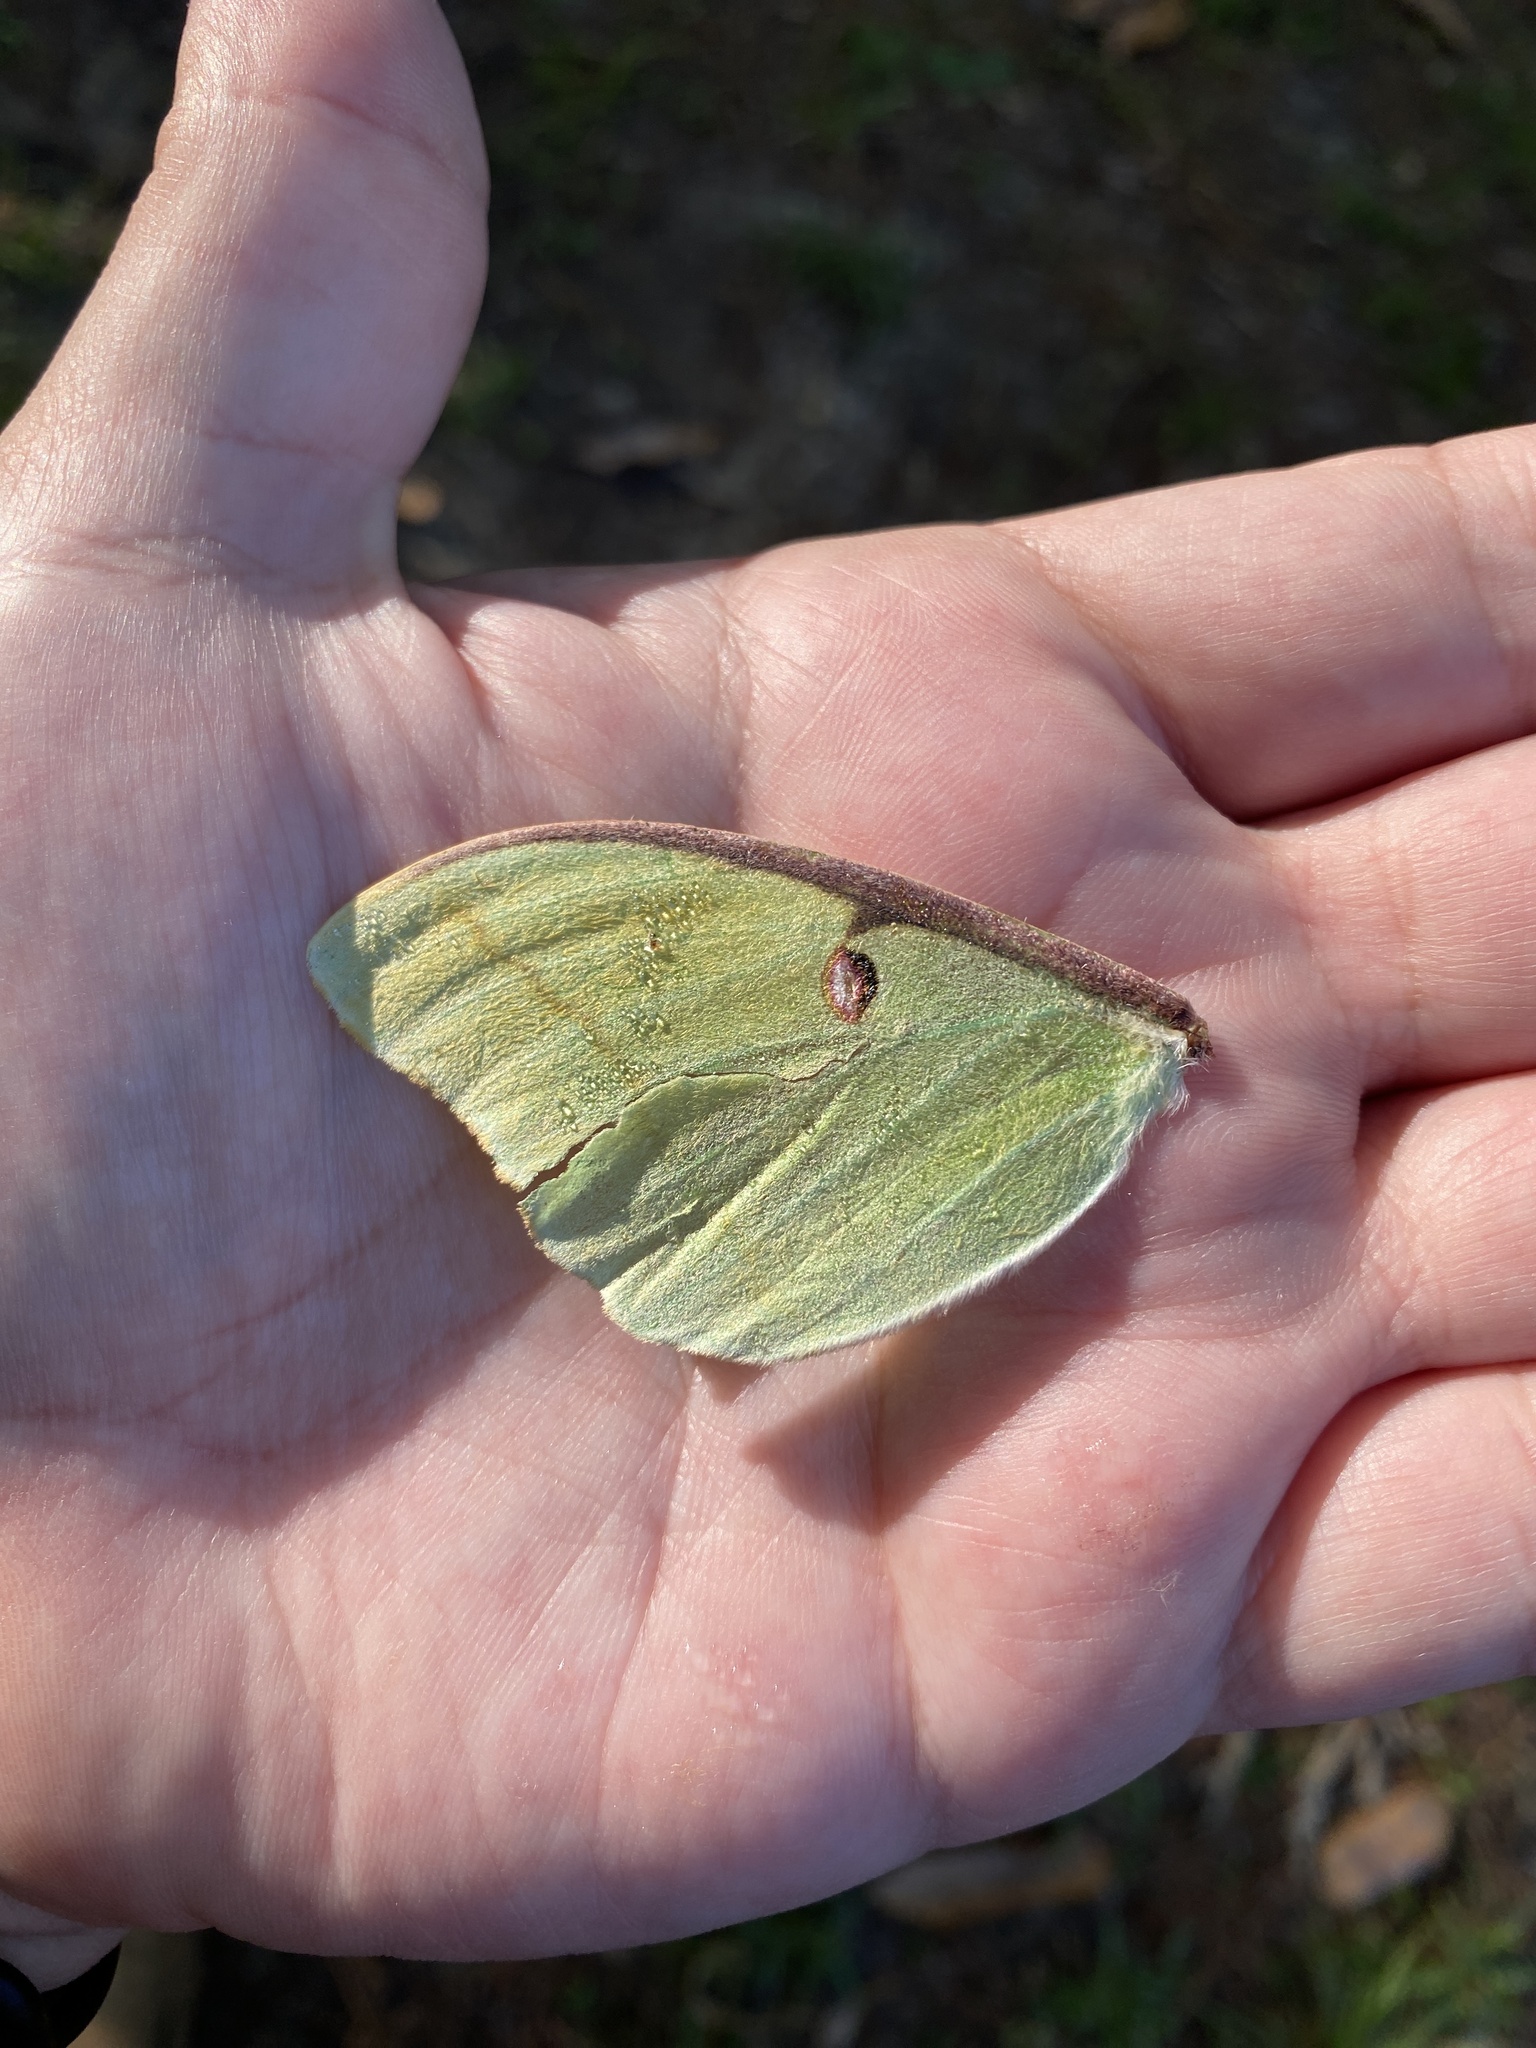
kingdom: Animalia
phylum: Arthropoda
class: Insecta
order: Lepidoptera
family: Saturniidae
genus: Actias
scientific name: Actias luna
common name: Luna moth
